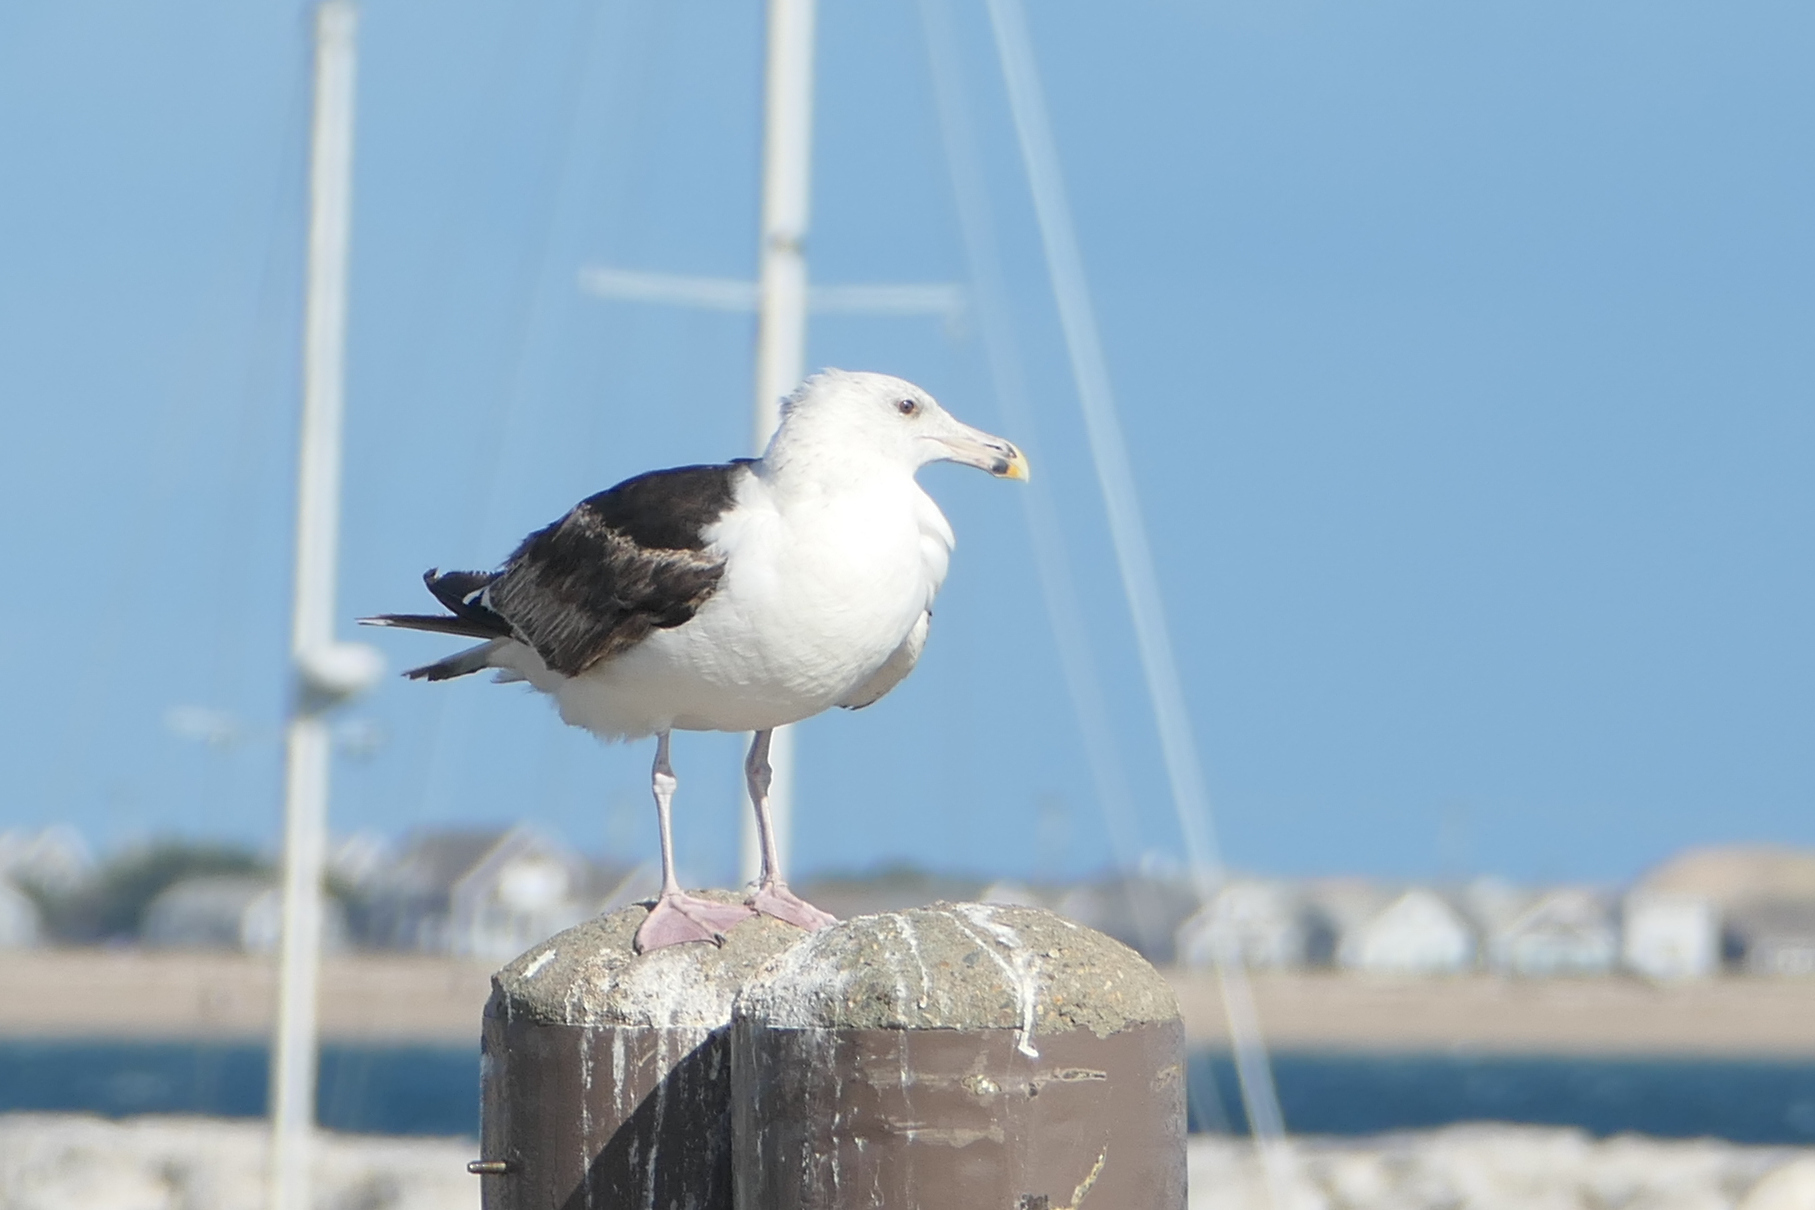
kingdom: Animalia
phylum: Chordata
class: Aves
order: Charadriiformes
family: Laridae
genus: Larus
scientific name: Larus marinus
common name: Great black-backed gull
